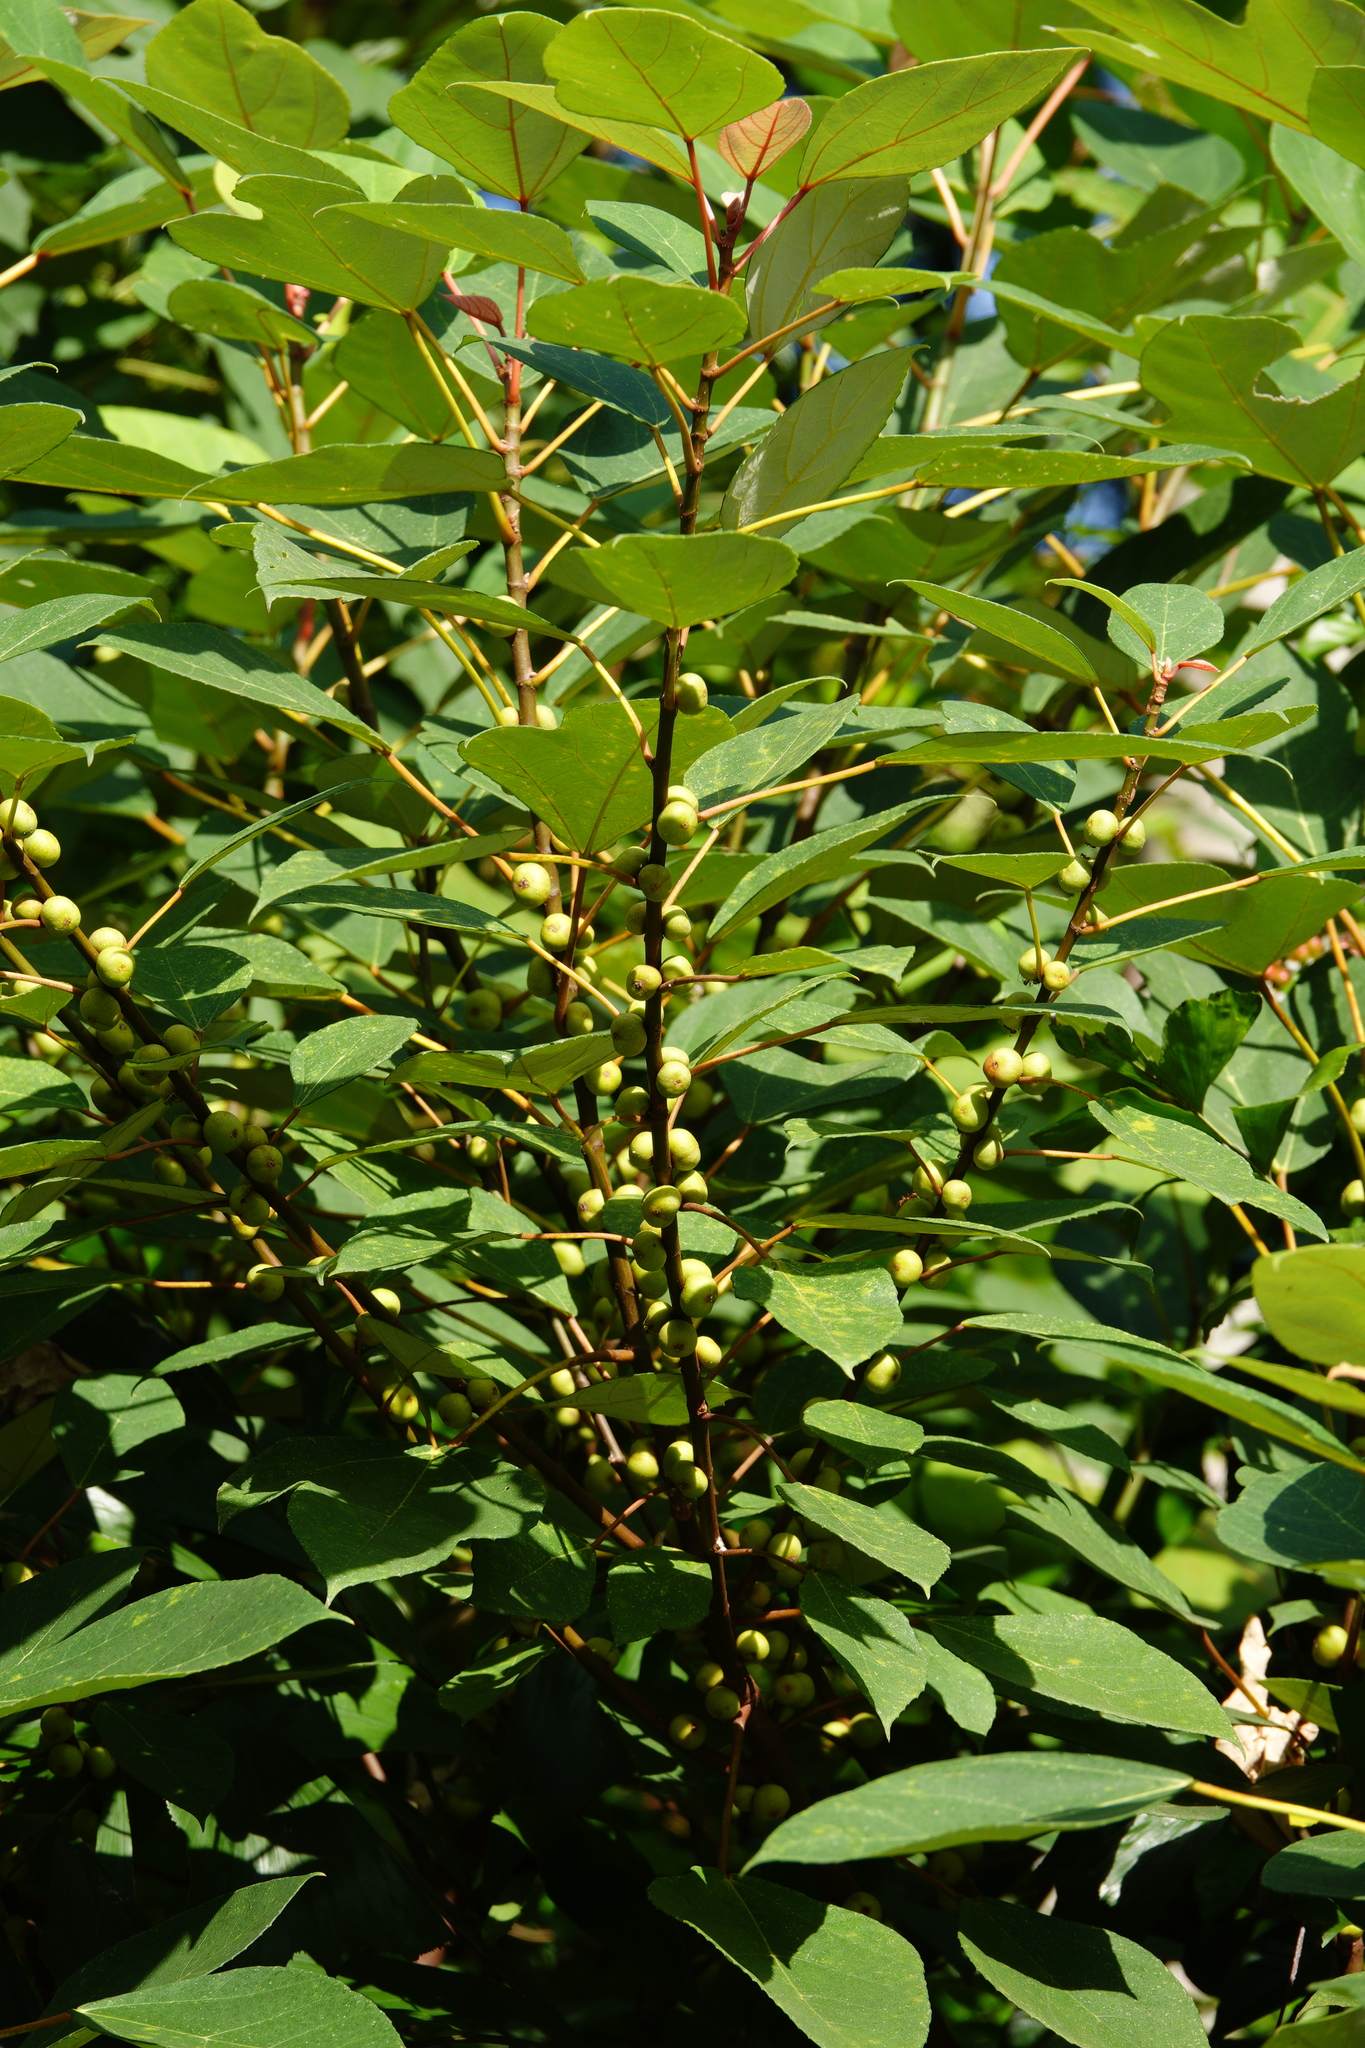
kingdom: Plantae
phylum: Tracheophyta
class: Magnoliopsida
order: Rosales
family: Moraceae
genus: Ficus
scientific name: Ficus grossularioides
